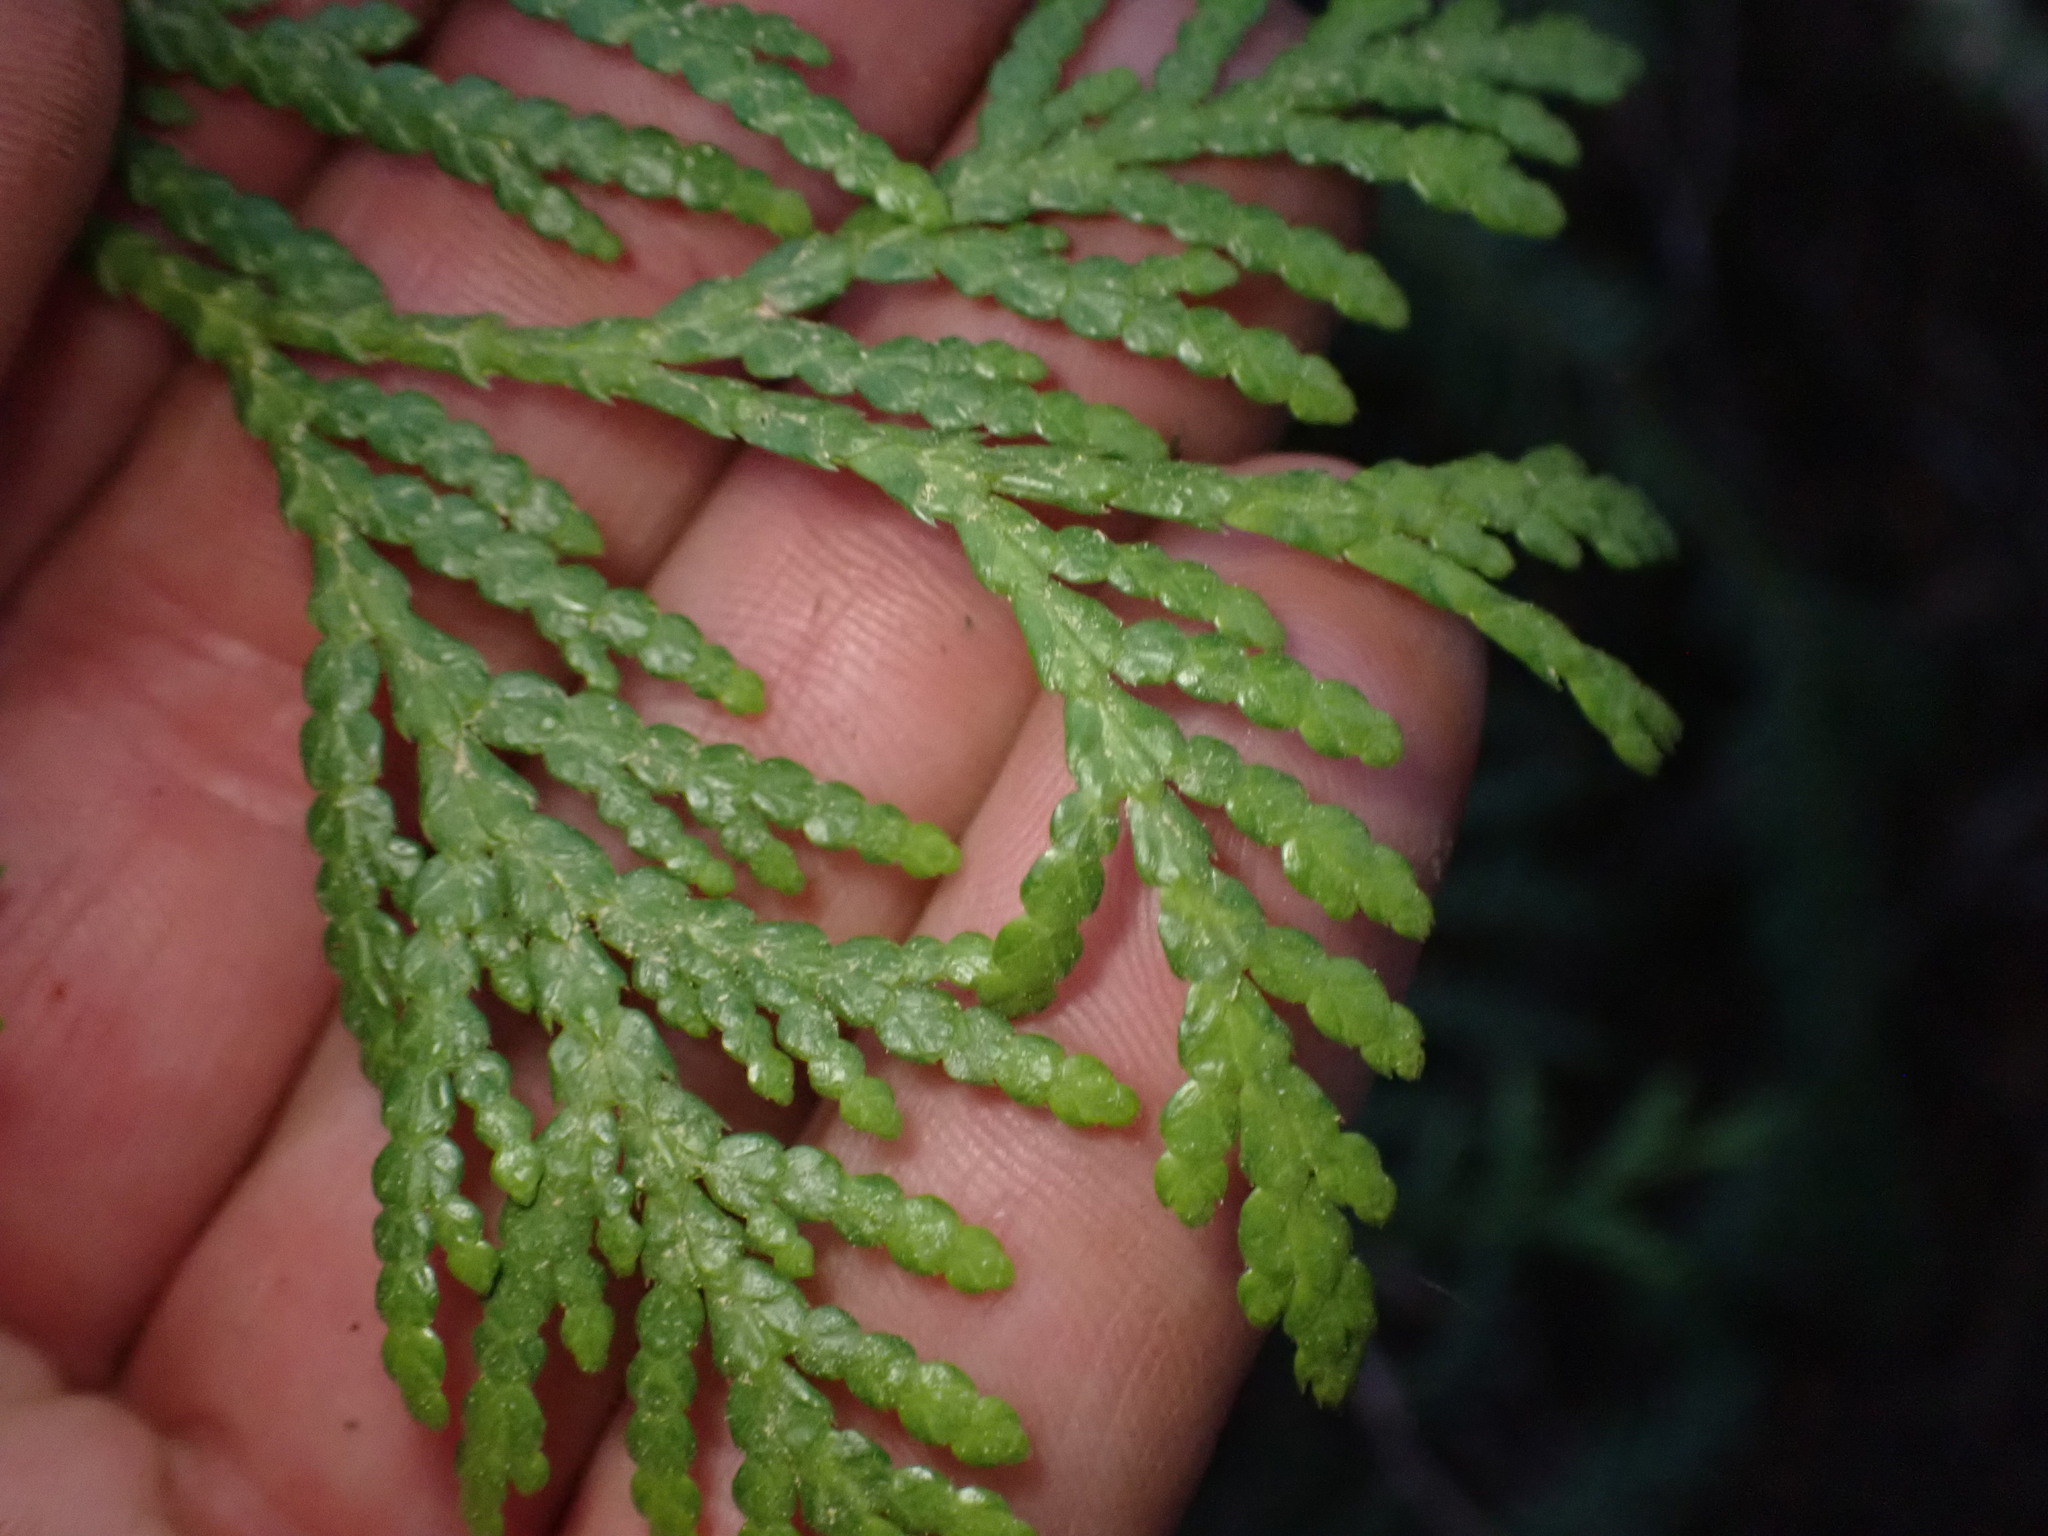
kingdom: Plantae
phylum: Tracheophyta
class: Pinopsida
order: Pinales
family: Cupressaceae
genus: Thuja
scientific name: Thuja plicata
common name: Western red-cedar
